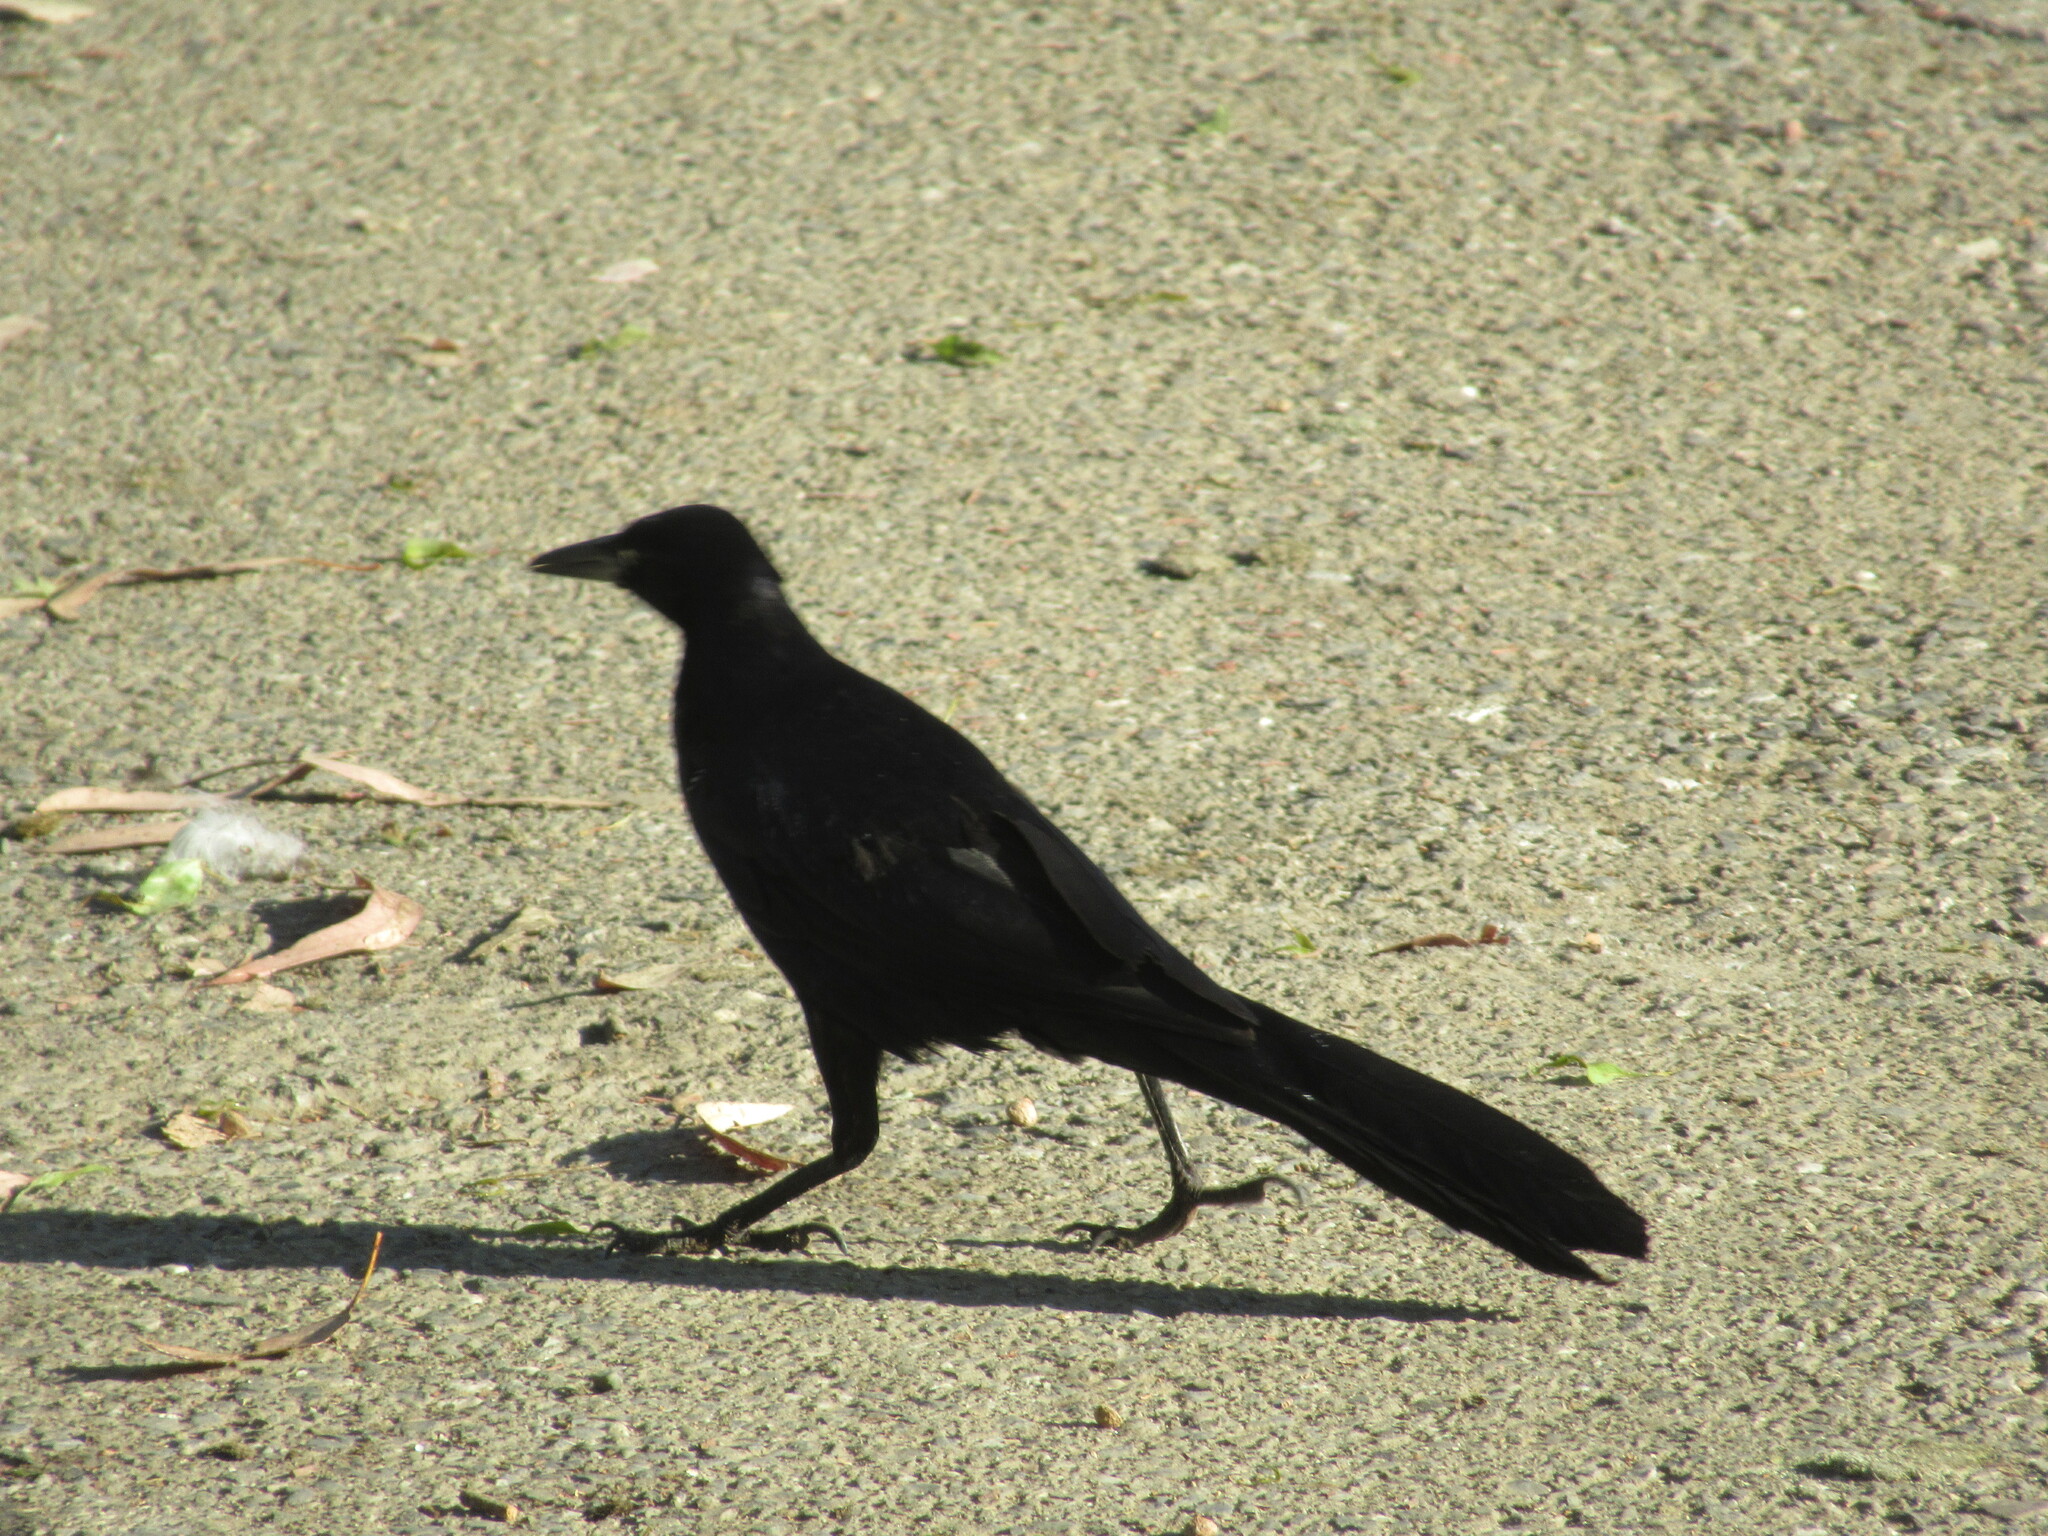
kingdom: Animalia
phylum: Chordata
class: Aves
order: Passeriformes
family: Icteridae
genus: Quiscalus
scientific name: Quiscalus mexicanus
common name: Great-tailed grackle
